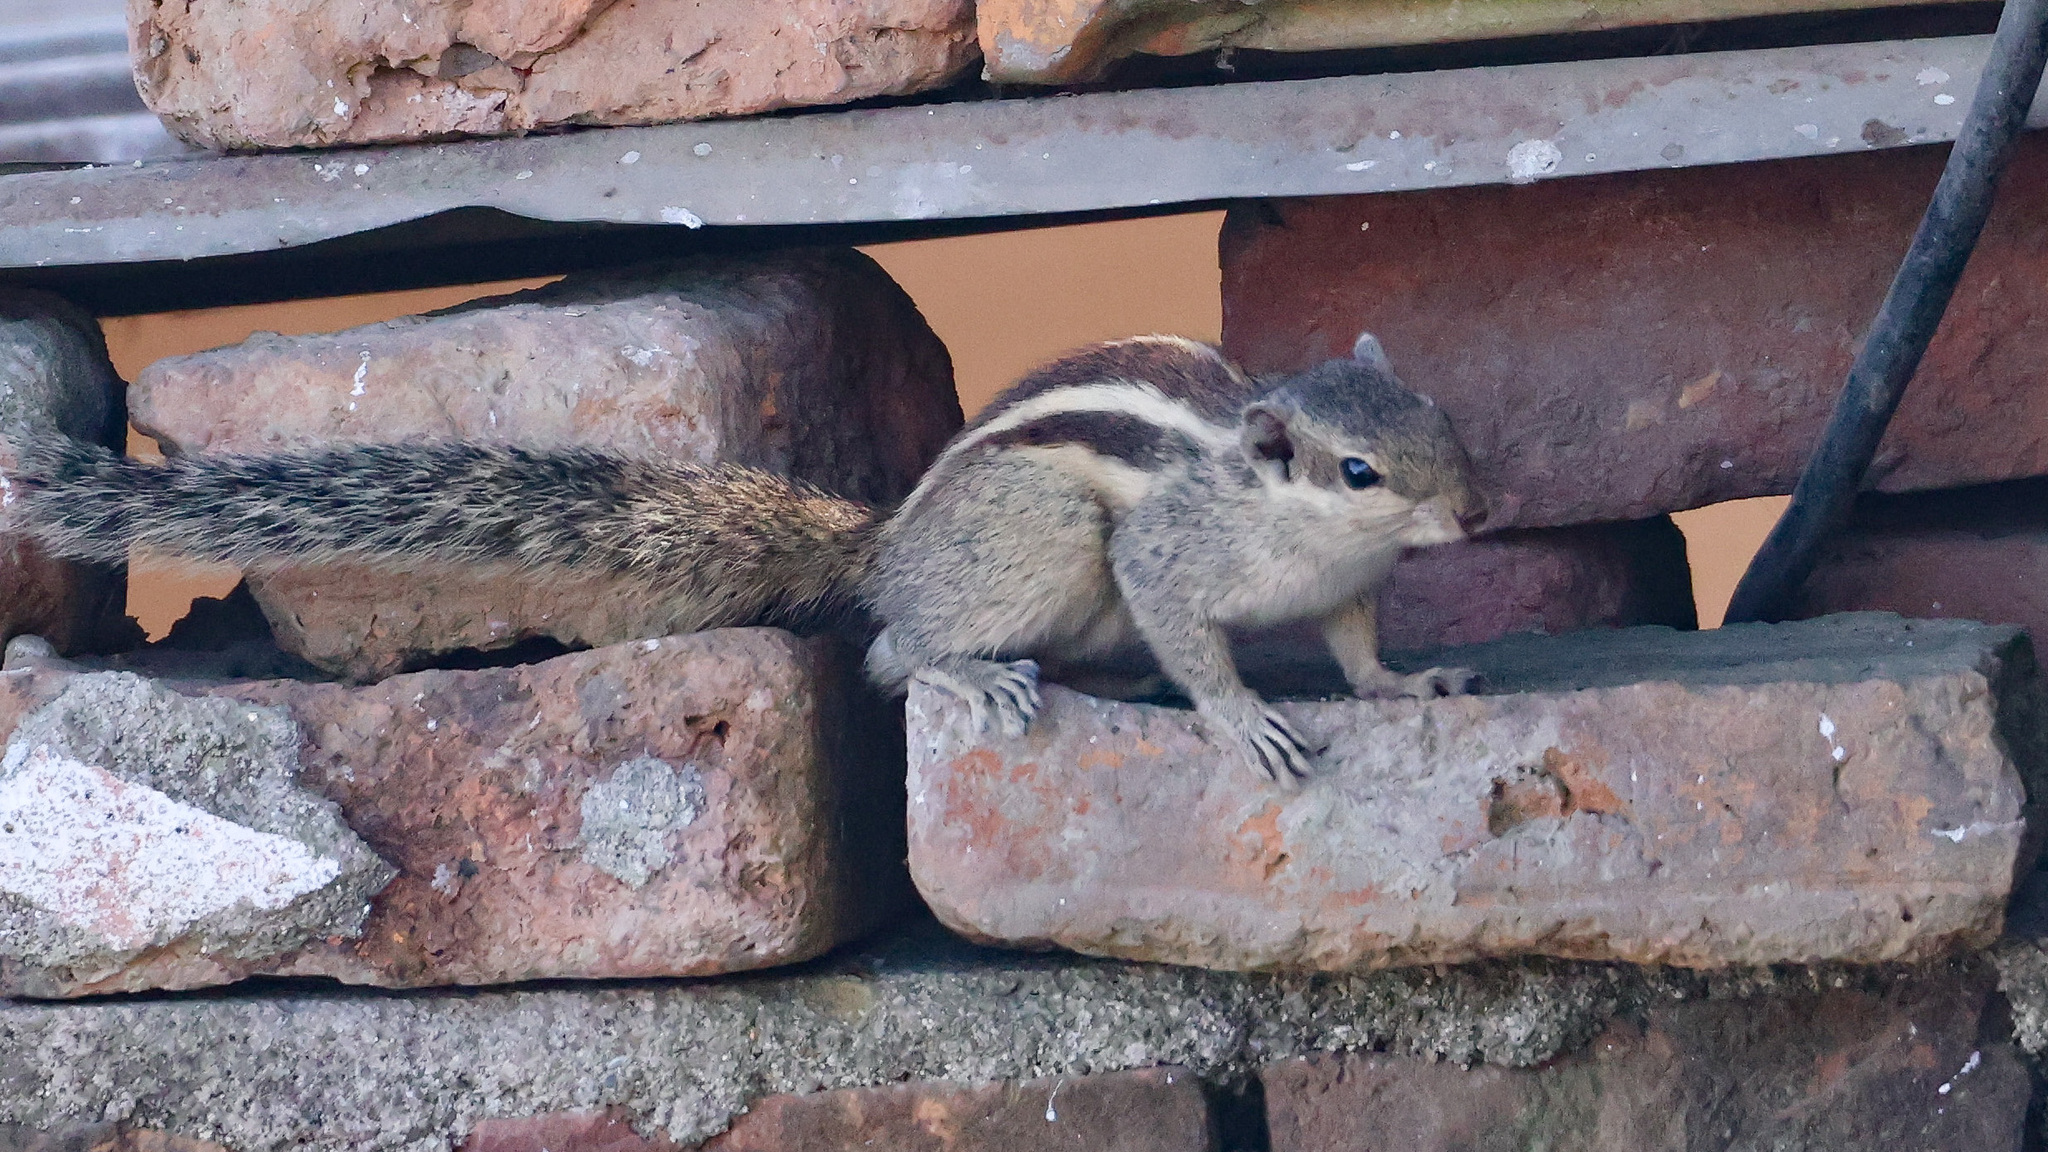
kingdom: Animalia
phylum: Chordata
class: Mammalia
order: Rodentia
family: Sciuridae
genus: Funambulus
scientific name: Funambulus pennantii
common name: Northern palm squirrel
